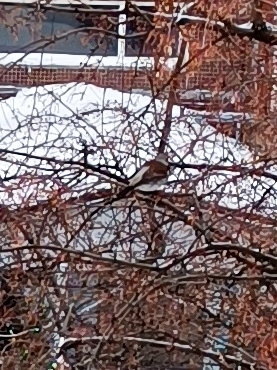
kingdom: Animalia
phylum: Chordata
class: Aves
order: Passeriformes
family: Turdidae
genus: Turdus
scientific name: Turdus pilaris
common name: Fieldfare
